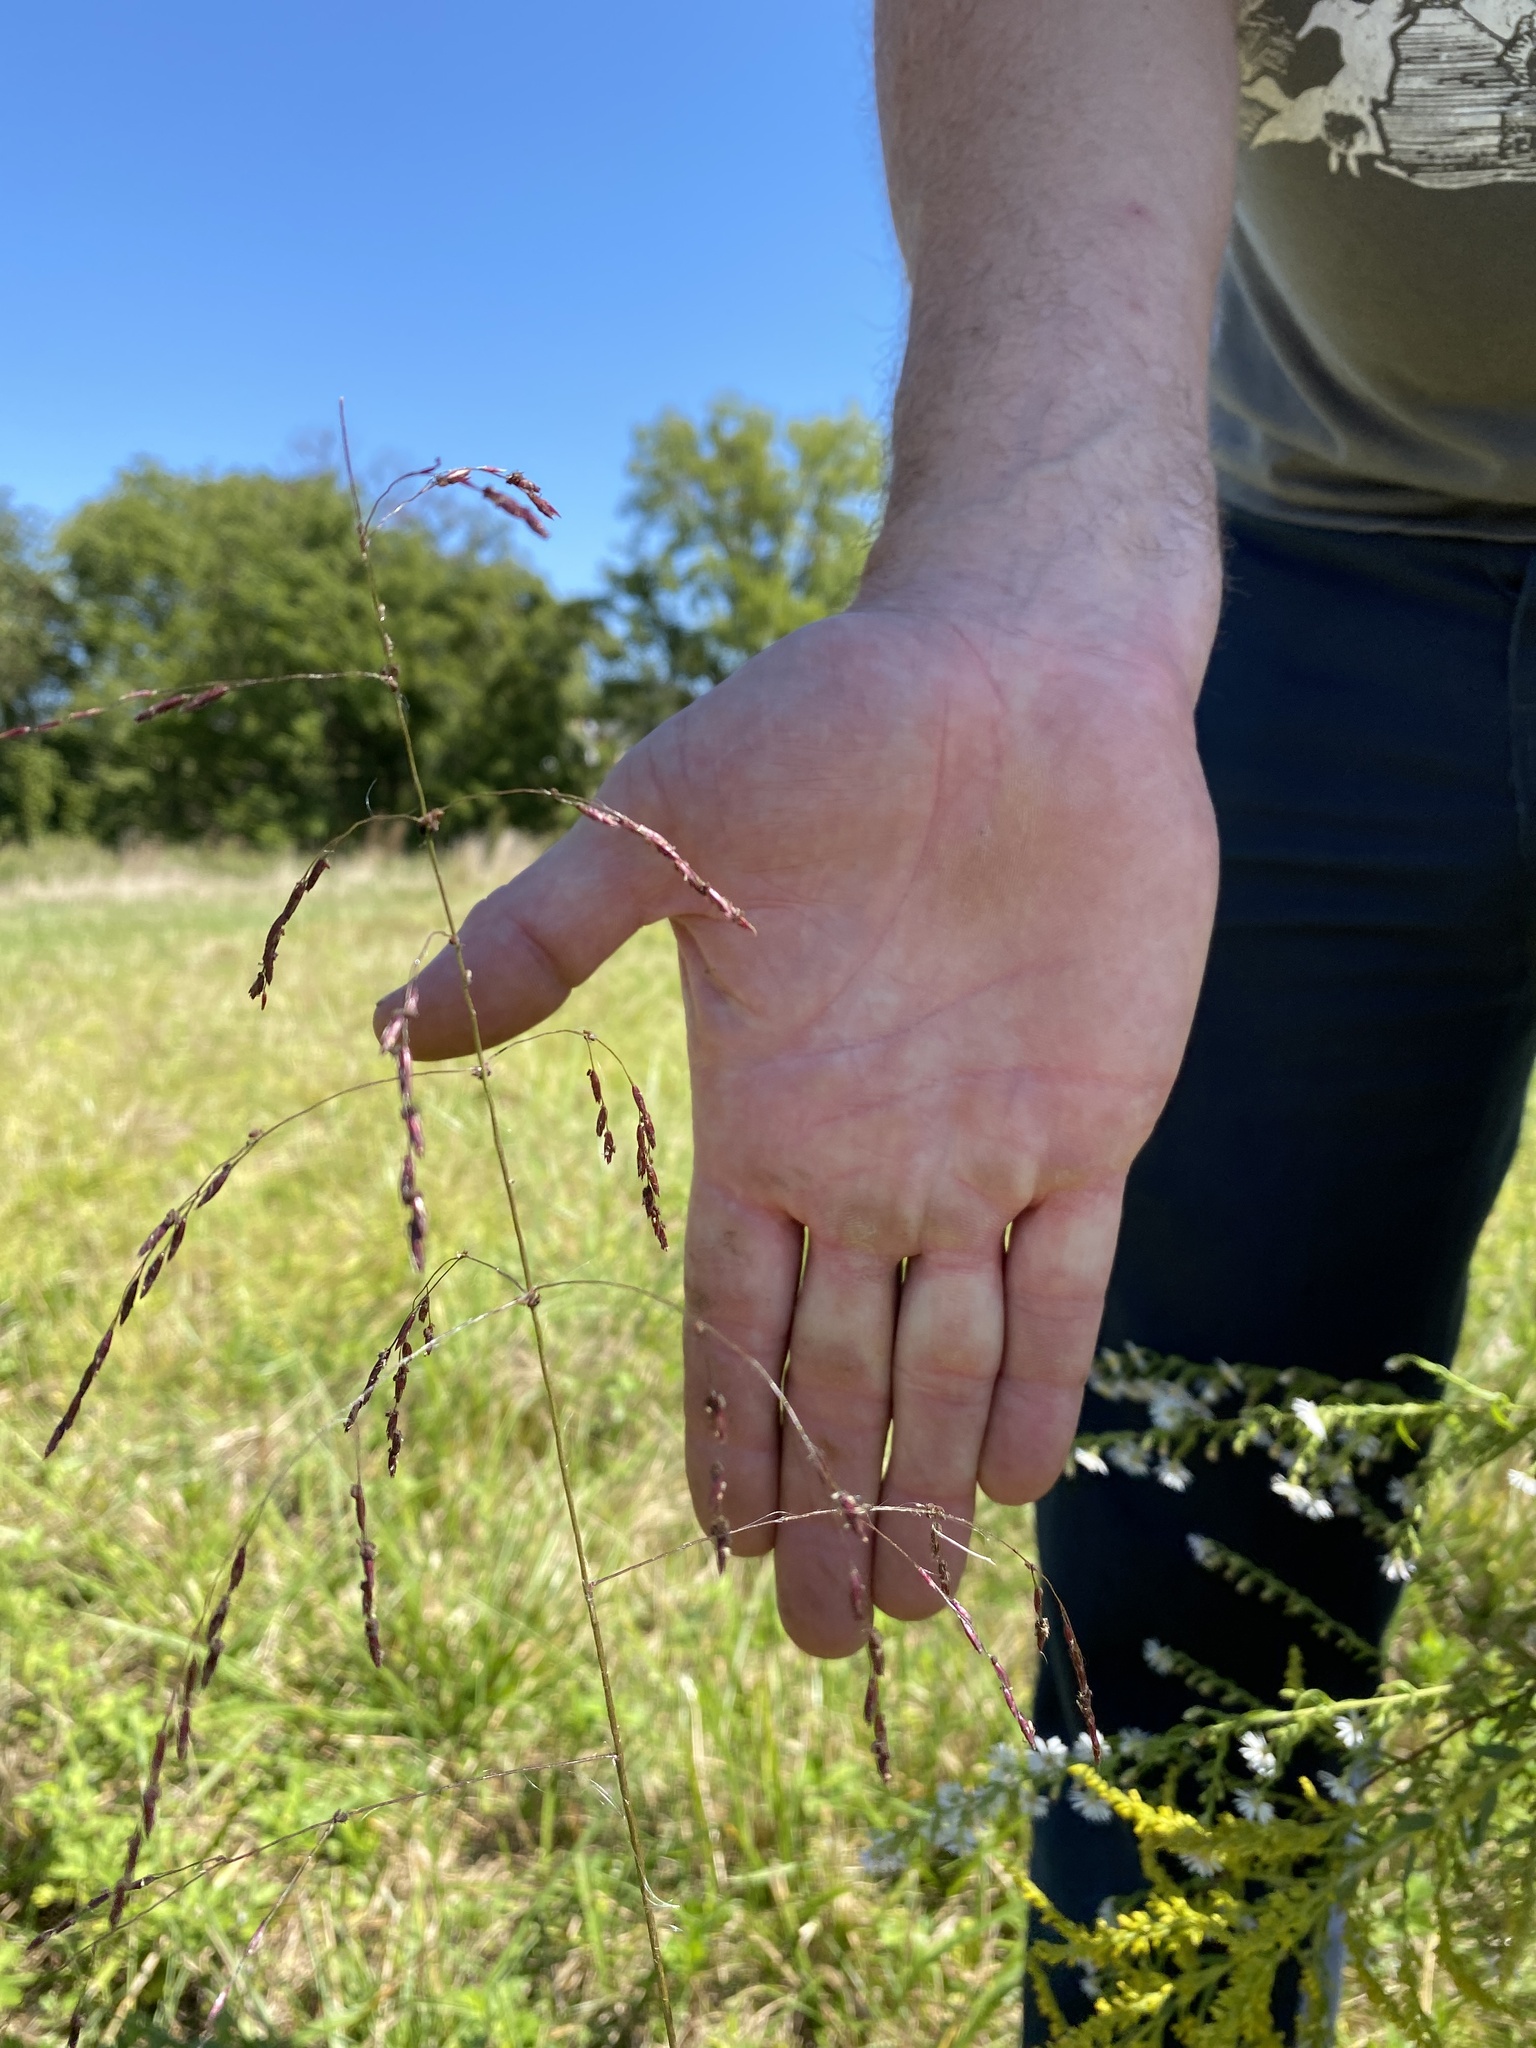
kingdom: Plantae
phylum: Tracheophyta
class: Liliopsida
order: Poales
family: Poaceae
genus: Tridens
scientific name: Tridens flavus
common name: Purpletop
